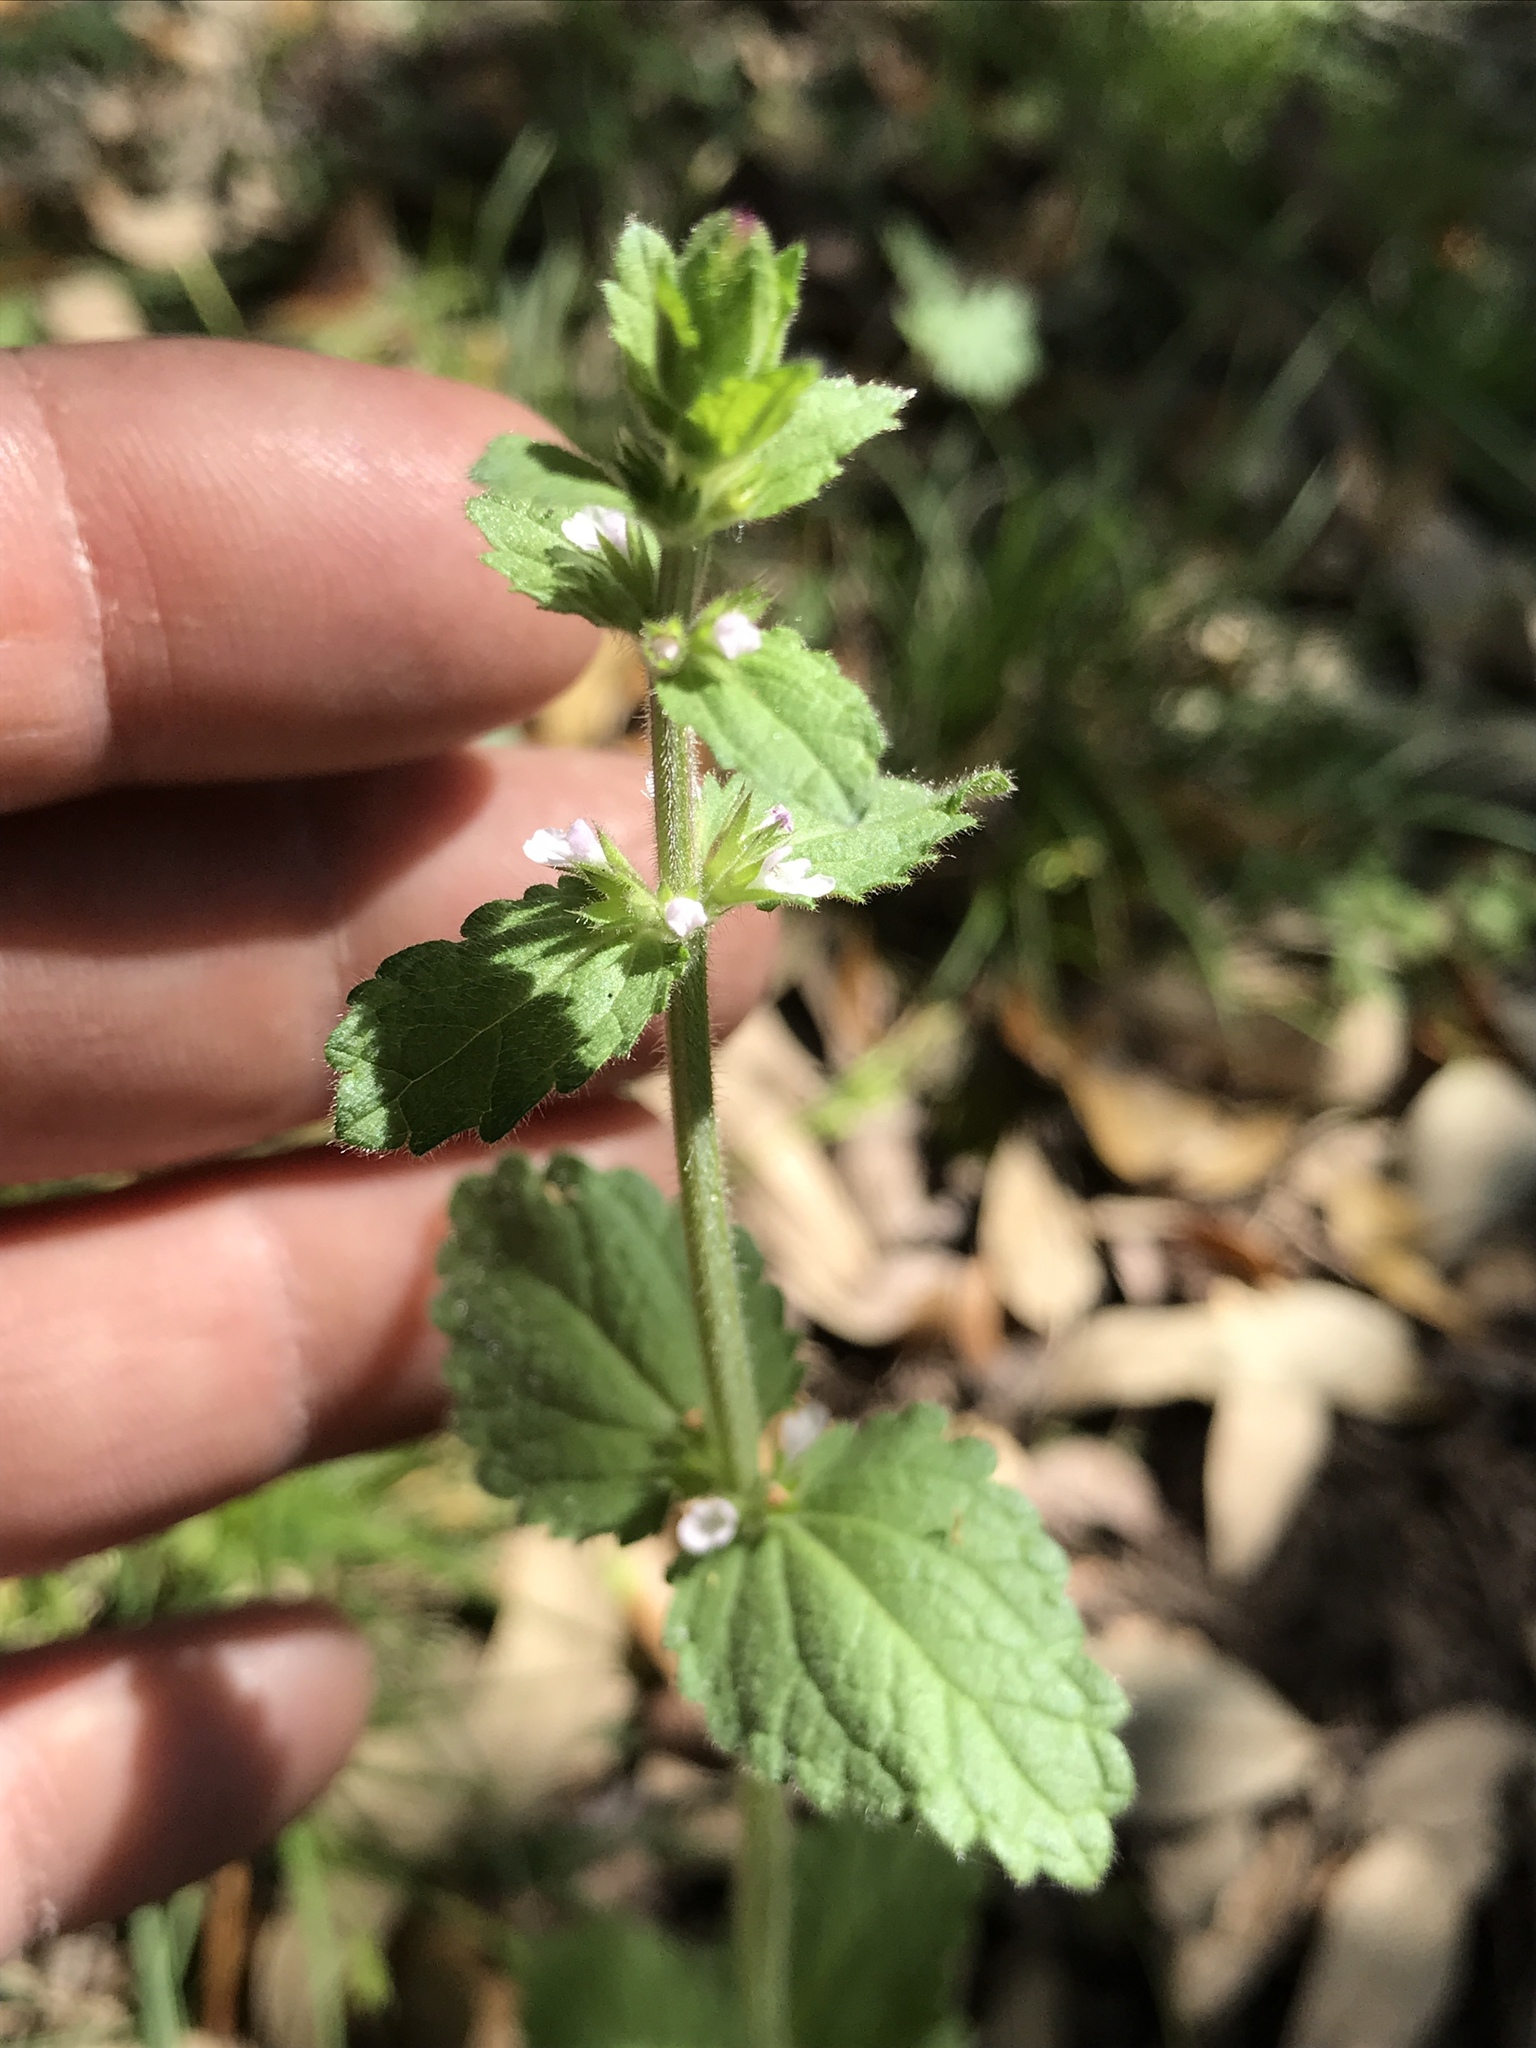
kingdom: Plantae
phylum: Tracheophyta
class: Magnoliopsida
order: Lamiales
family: Lamiaceae
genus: Stachys
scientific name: Stachys
